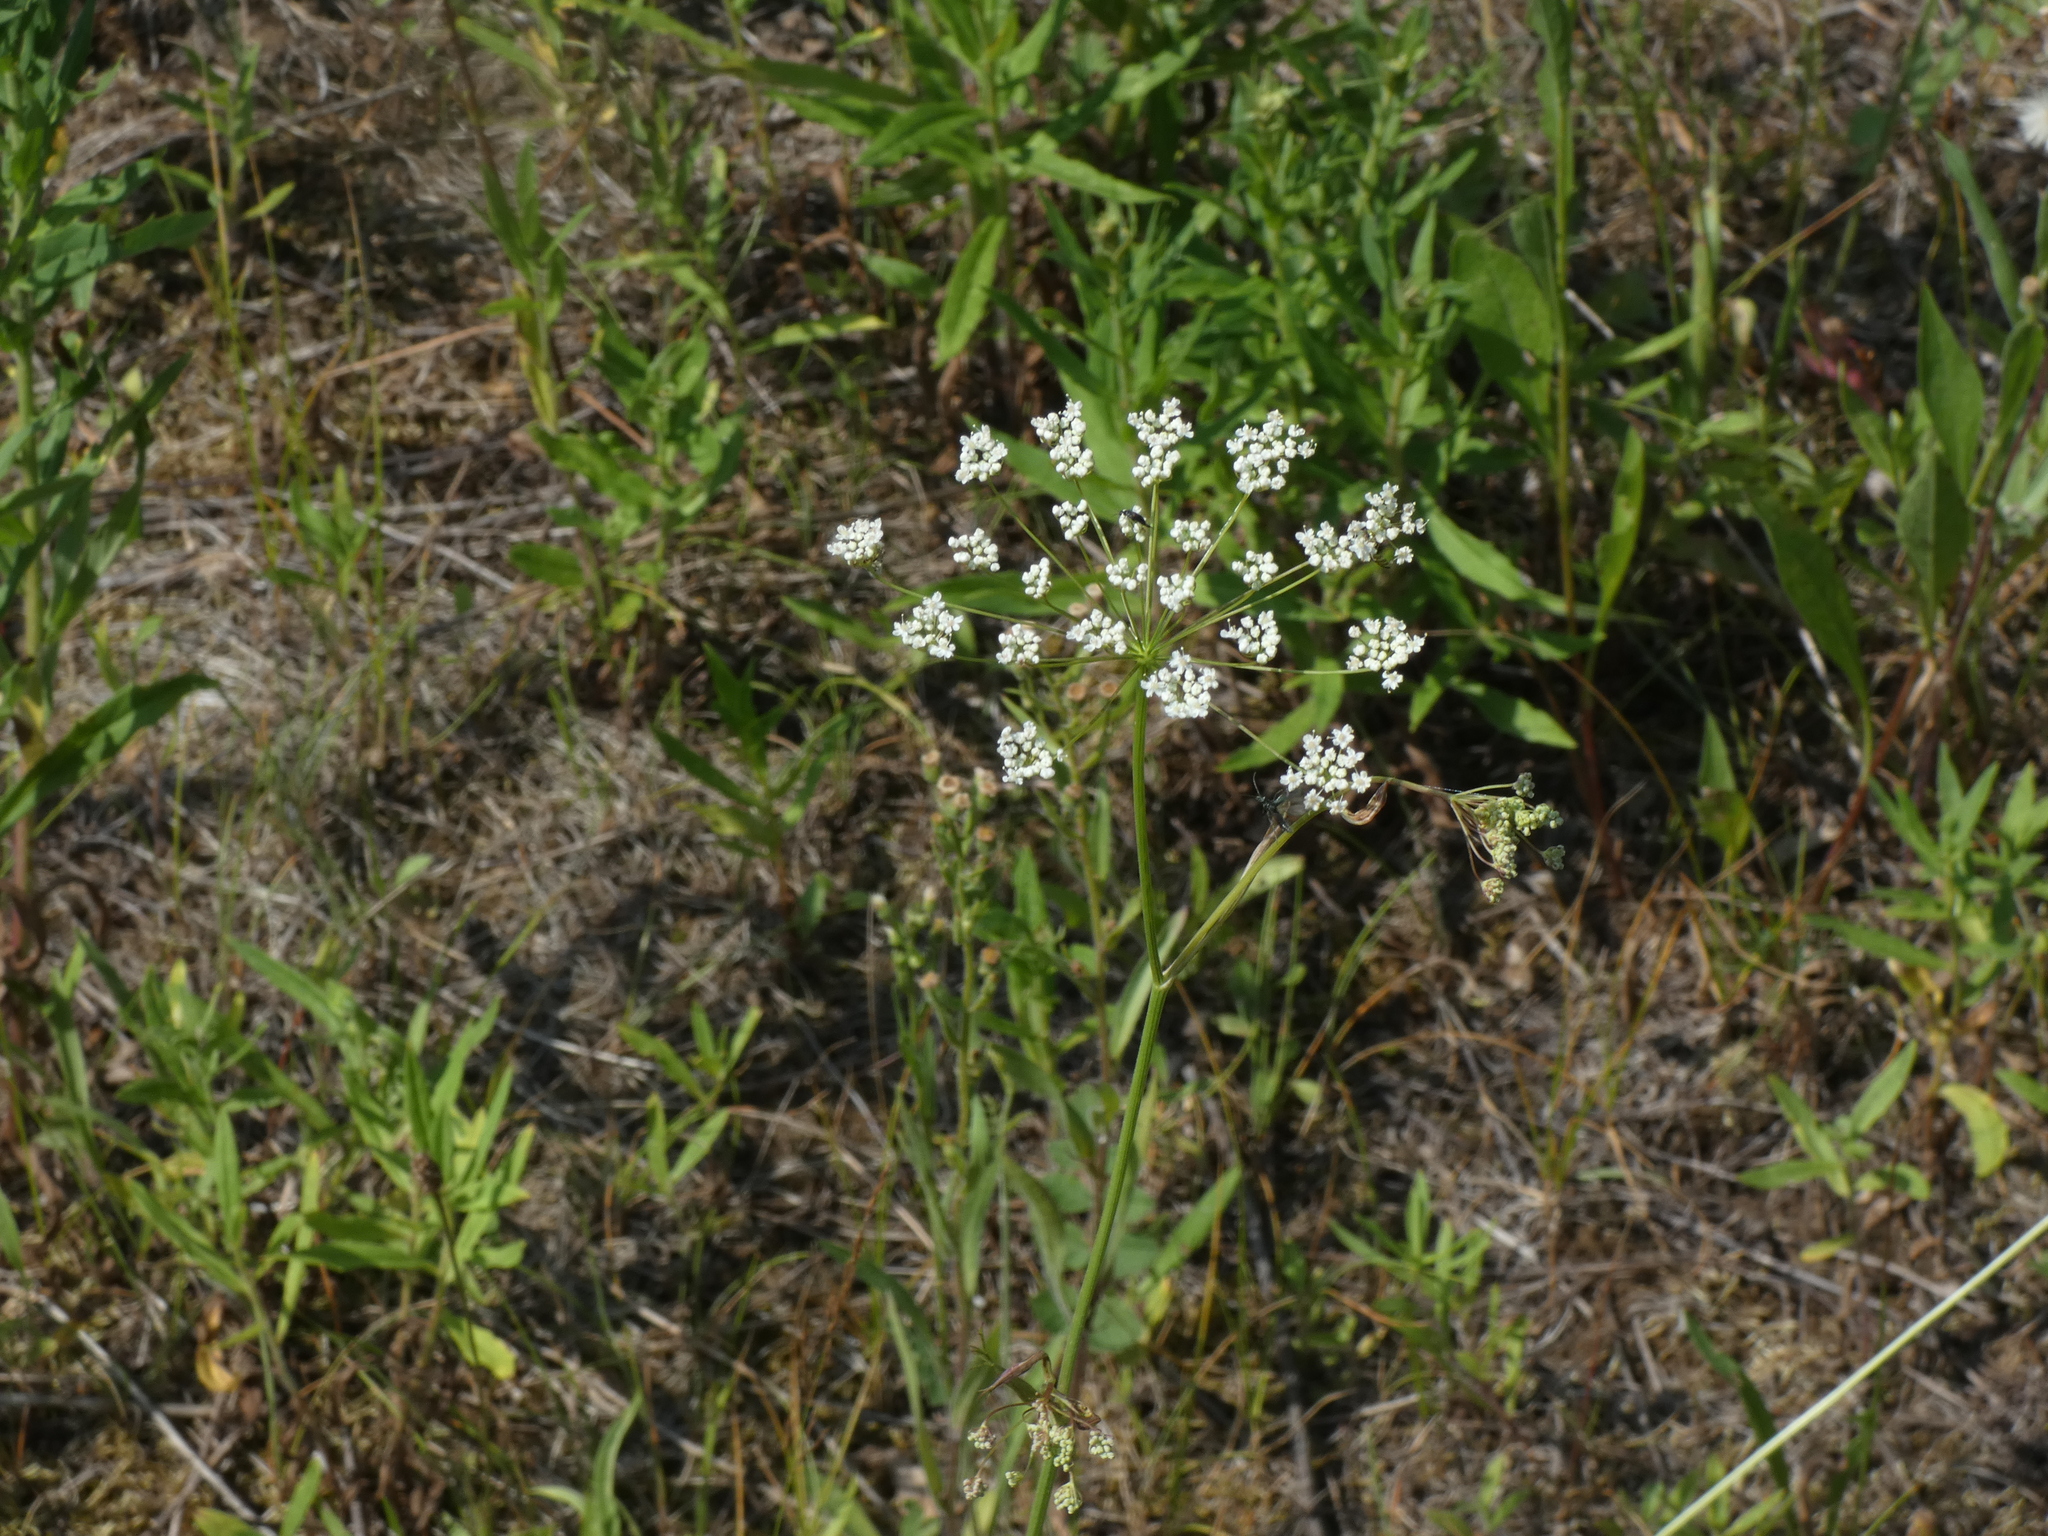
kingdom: Plantae
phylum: Tracheophyta
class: Magnoliopsida
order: Apiales
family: Apiaceae
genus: Pimpinella
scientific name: Pimpinella saxifraga
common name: Burnet-saxifrage
